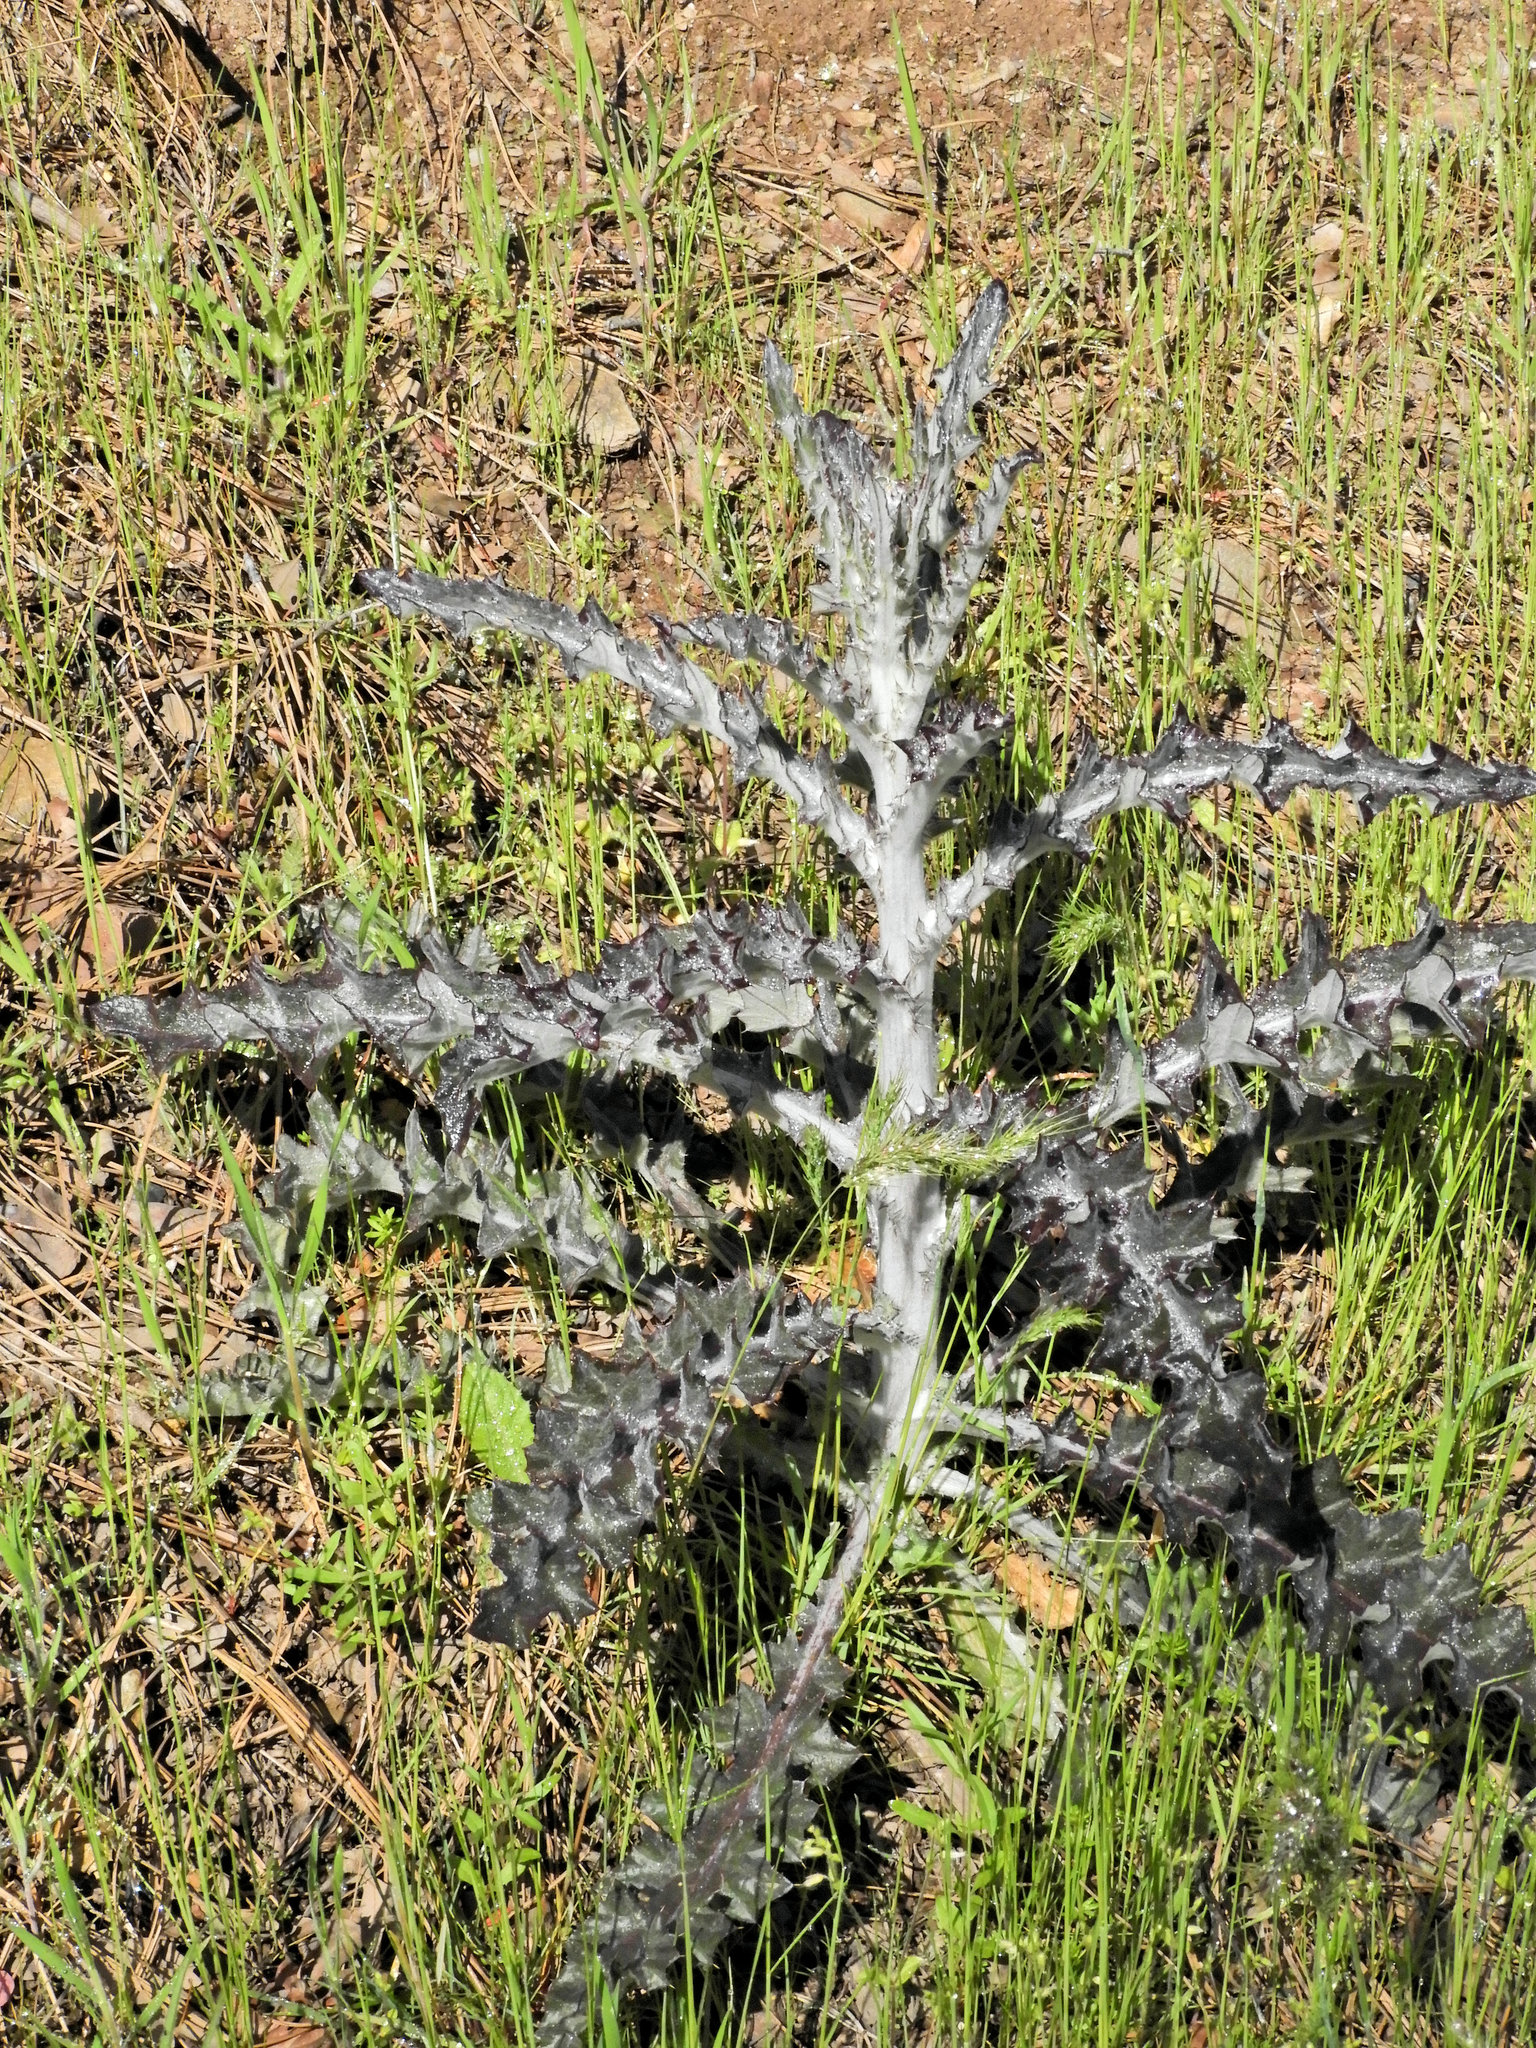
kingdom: Plantae
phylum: Tracheophyta
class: Magnoliopsida
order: Ericales
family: Primulaceae
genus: Dodecatheon
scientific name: Dodecatheon hendersonii
